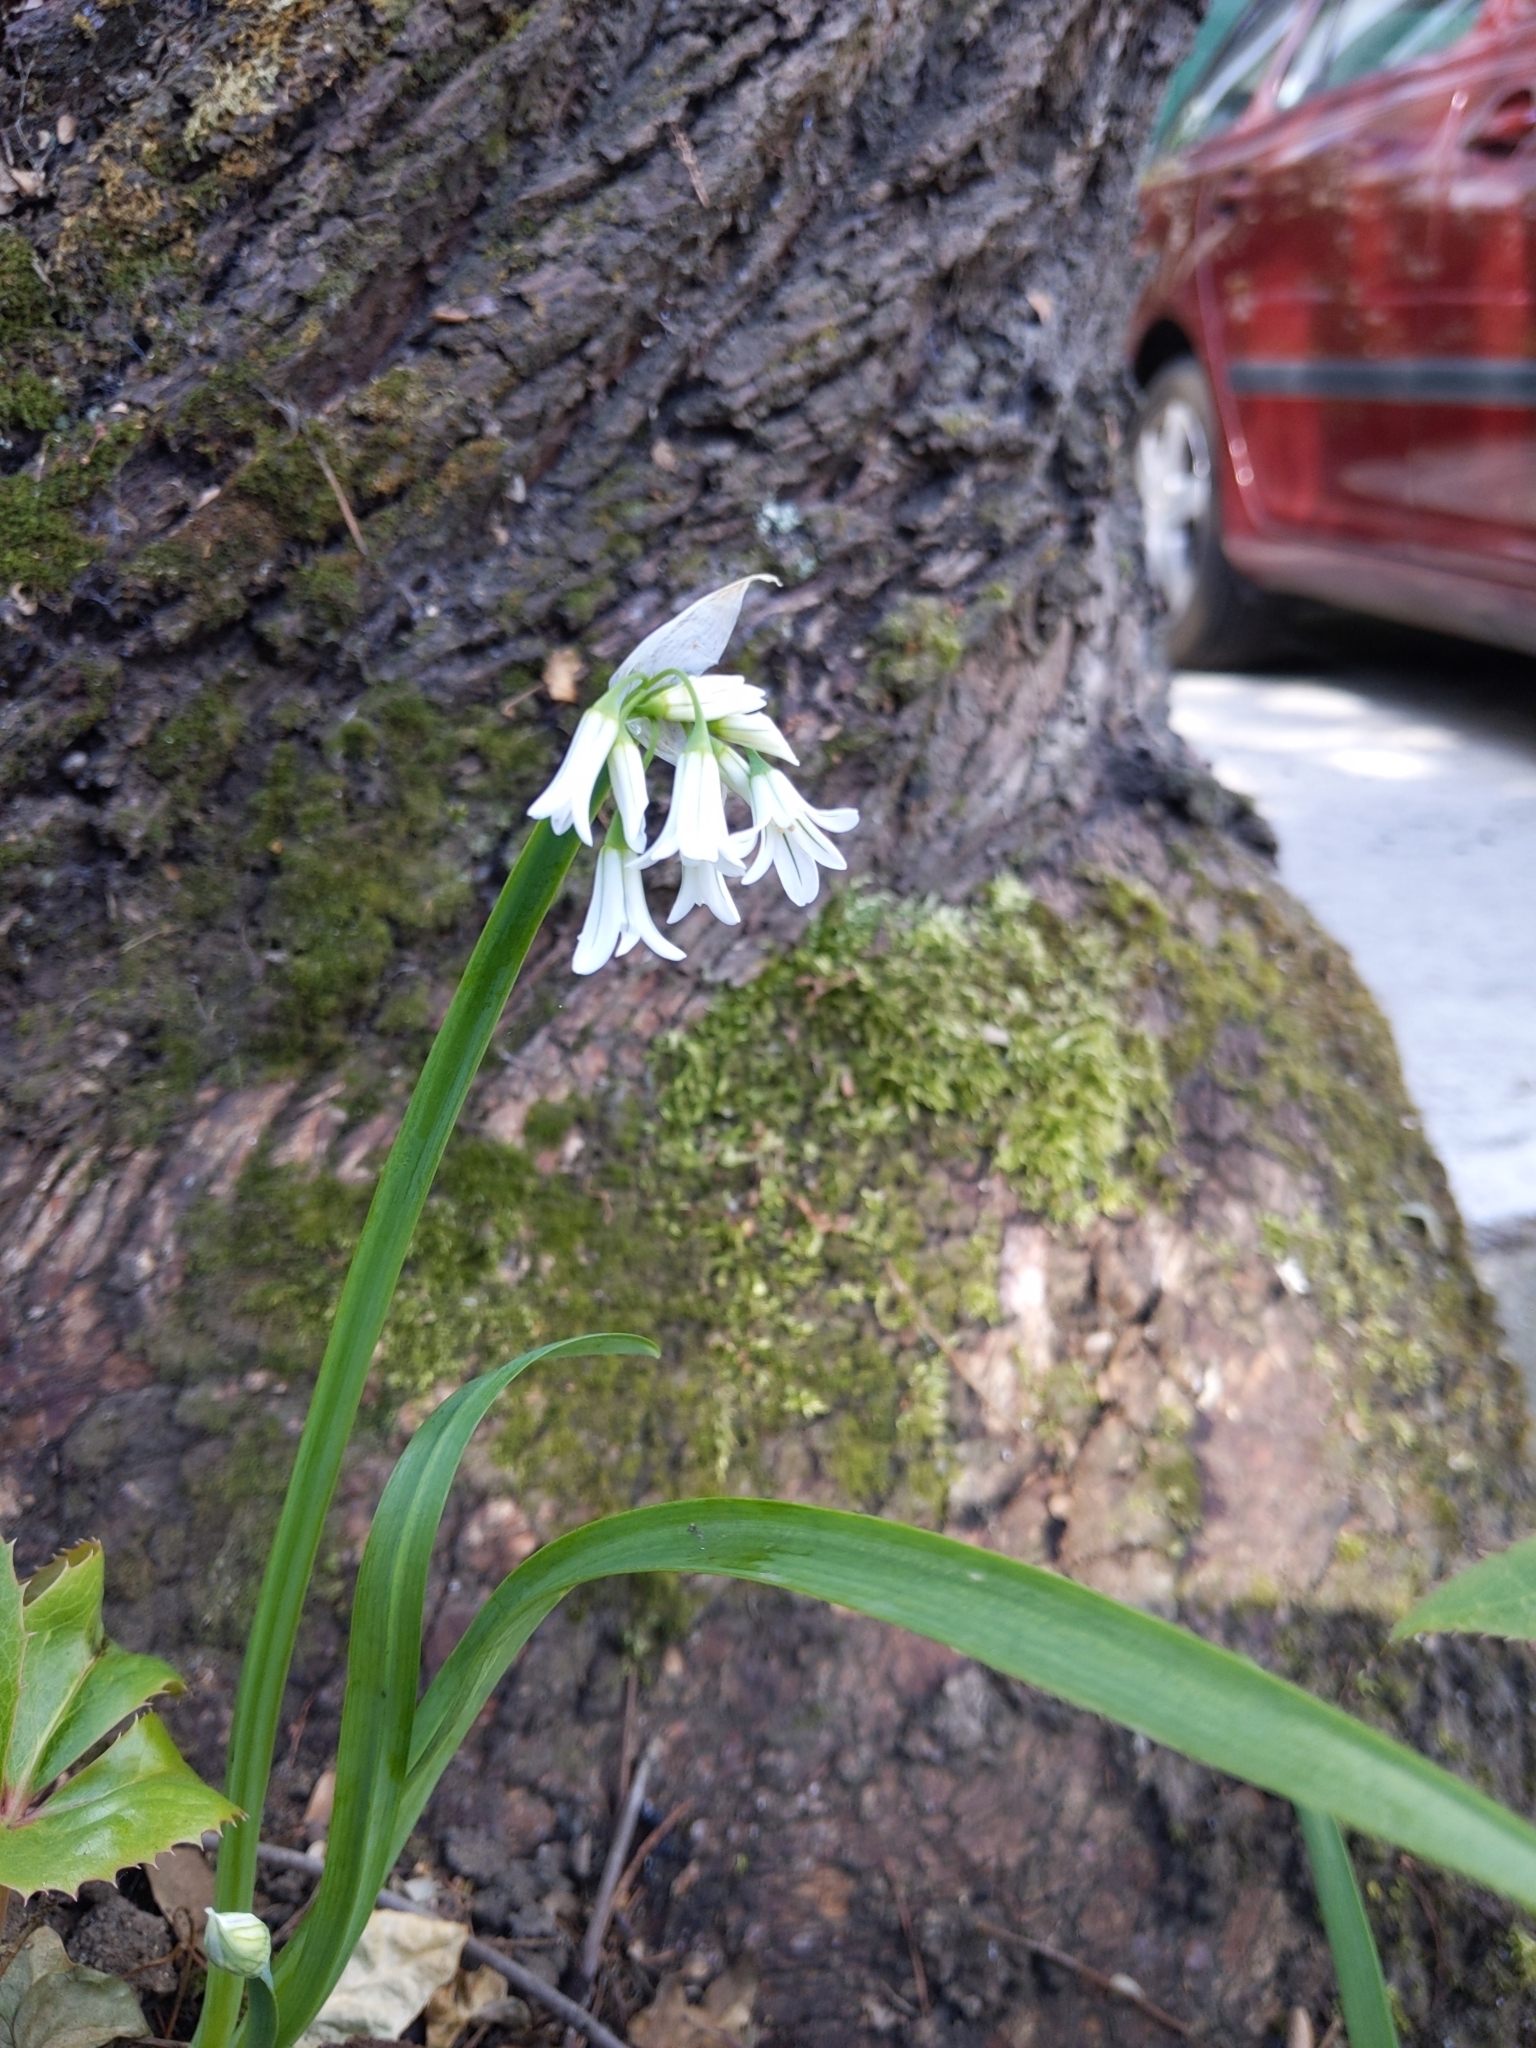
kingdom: Plantae
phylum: Tracheophyta
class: Liliopsida
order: Asparagales
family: Amaryllidaceae
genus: Allium
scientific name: Allium triquetrum
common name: Three-cornered garlic
